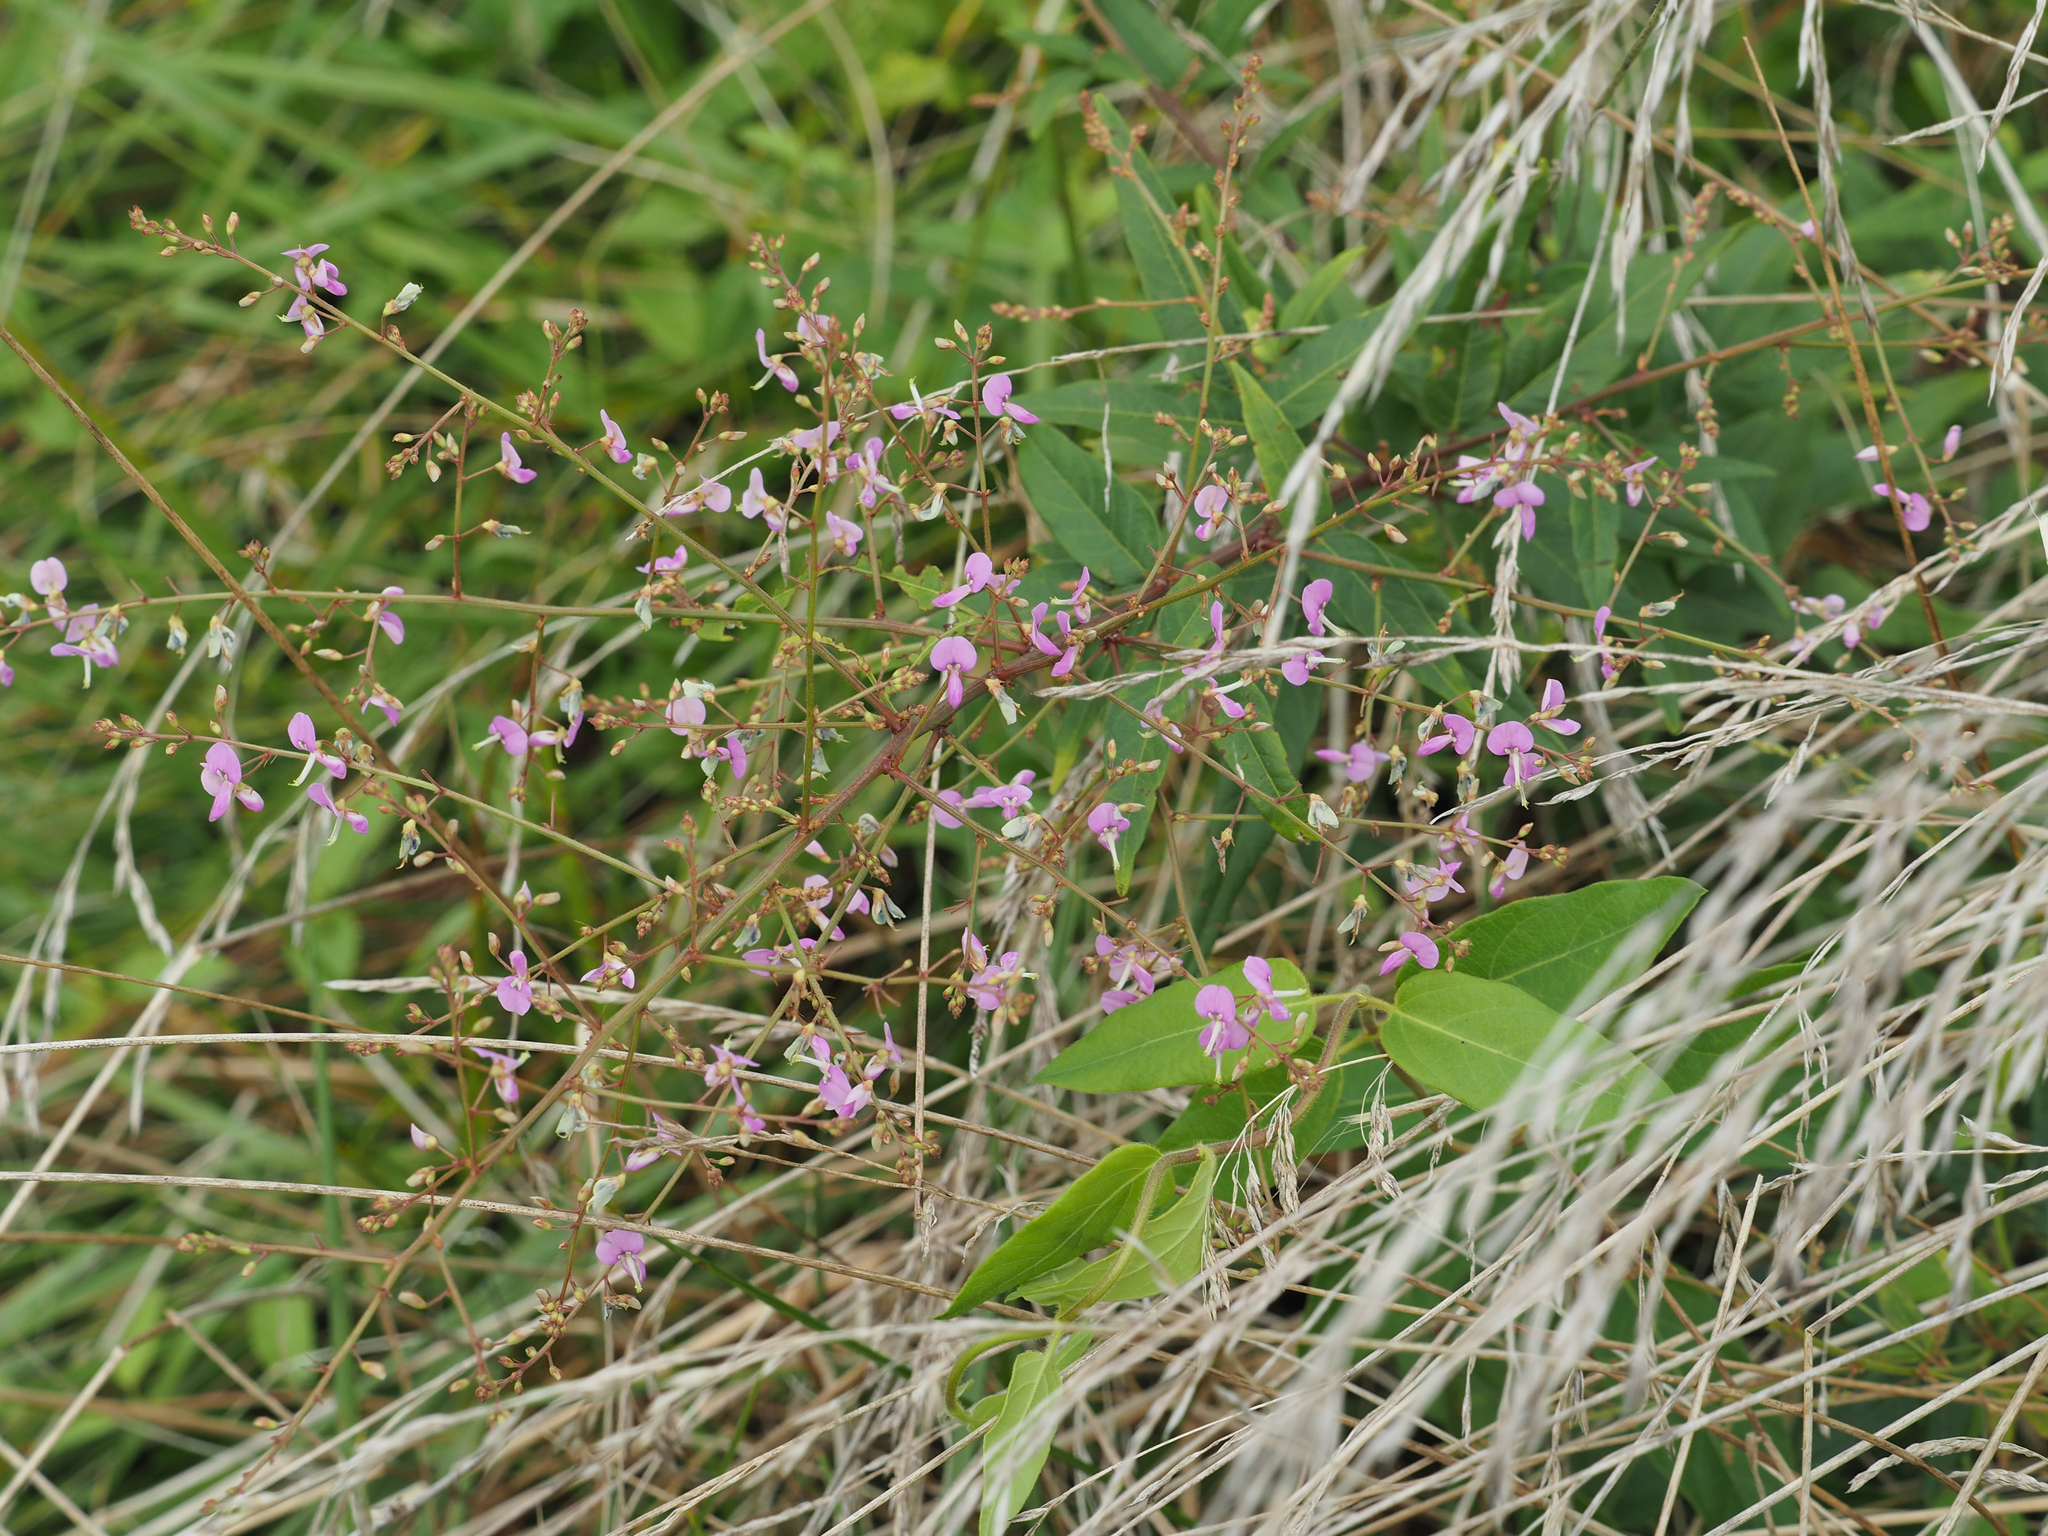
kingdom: Plantae
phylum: Tracheophyta
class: Magnoliopsida
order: Fabales
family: Fabaceae
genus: Desmodium
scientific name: Desmodium paniculatum
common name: Panicled tick-clover
